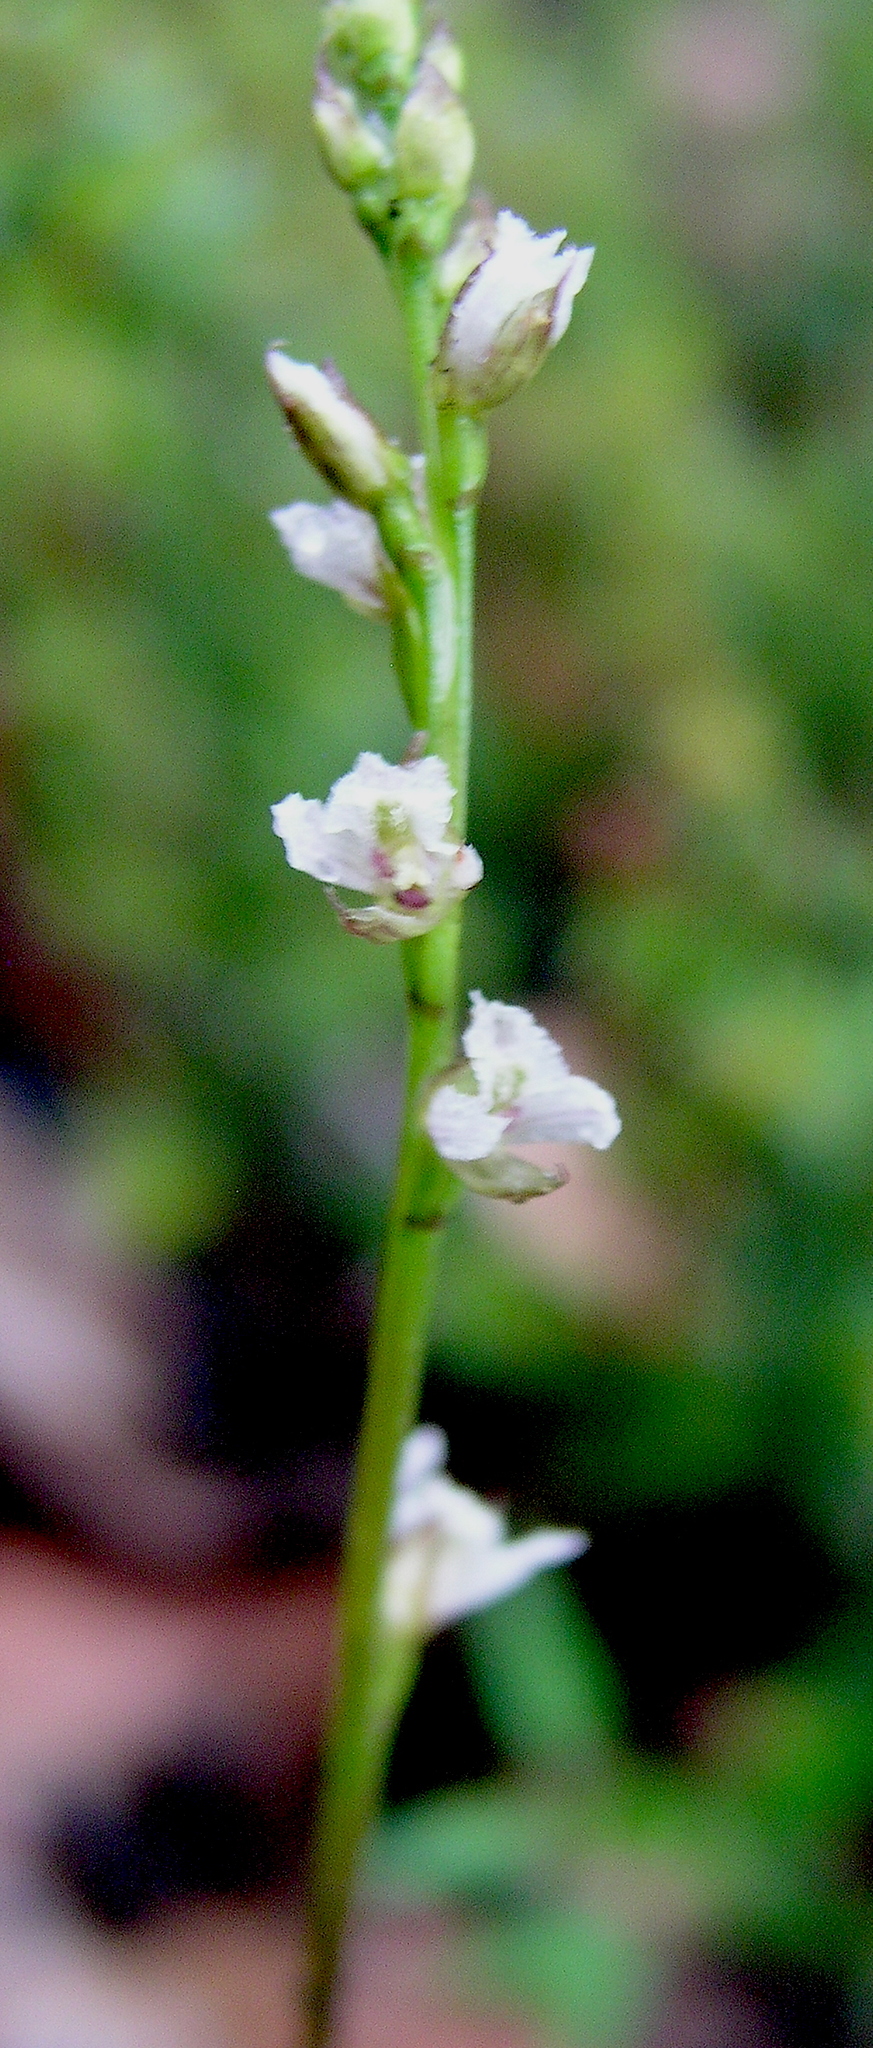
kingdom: Plantae
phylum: Tracheophyta
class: Liliopsida
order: Asparagales
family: Orchidaceae
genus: Prasophyllum
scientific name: Prasophyllum hians
